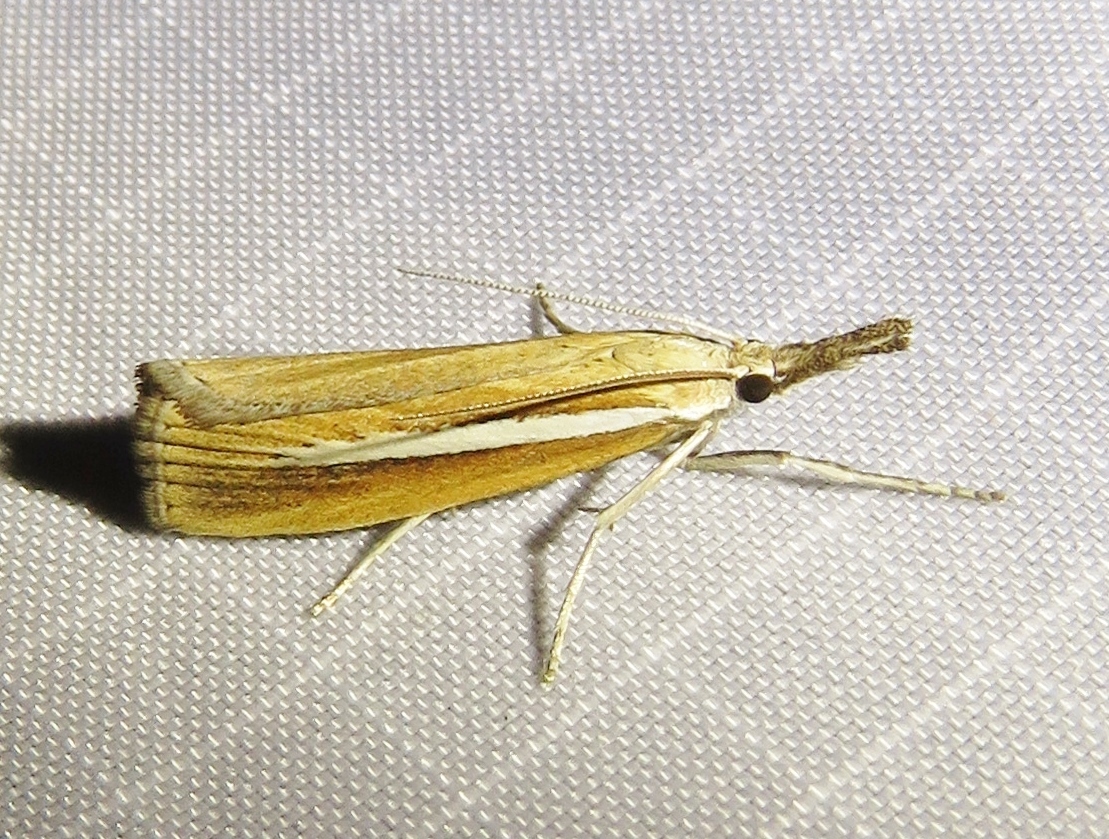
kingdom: Animalia
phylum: Arthropoda
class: Insecta
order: Lepidoptera
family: Crambidae
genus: Agriphila
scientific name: Agriphila selasella
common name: Pale-streak grass-veneer
